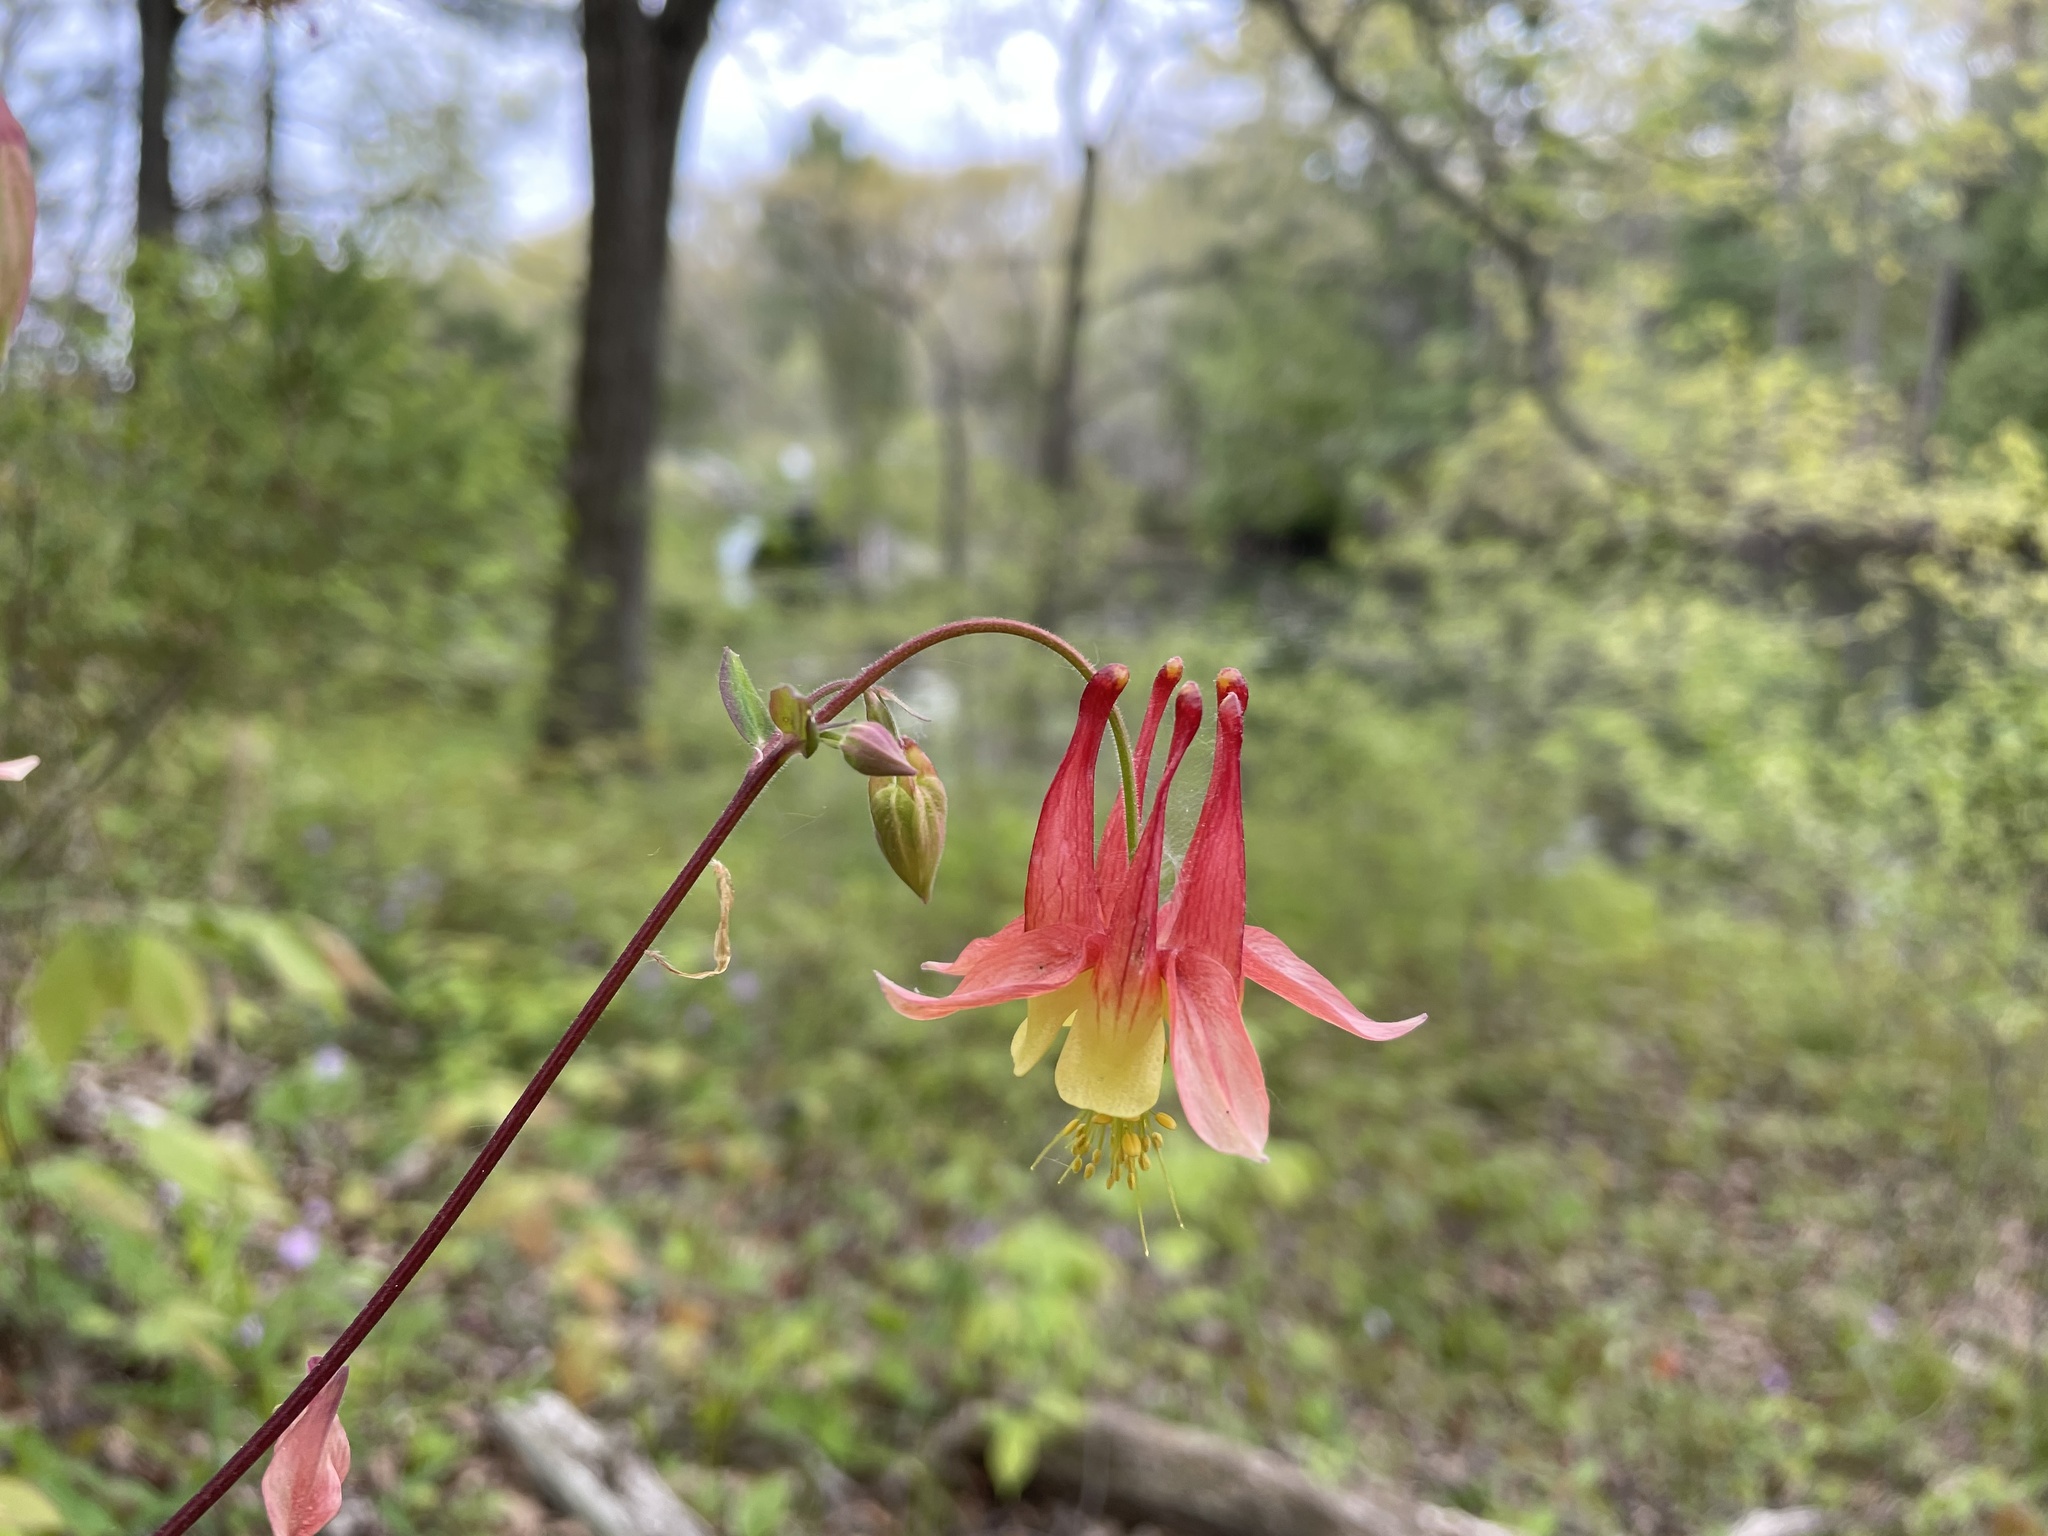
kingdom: Plantae
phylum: Tracheophyta
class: Magnoliopsida
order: Ranunculales
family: Ranunculaceae
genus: Aquilegia
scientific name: Aquilegia canadensis
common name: American columbine
